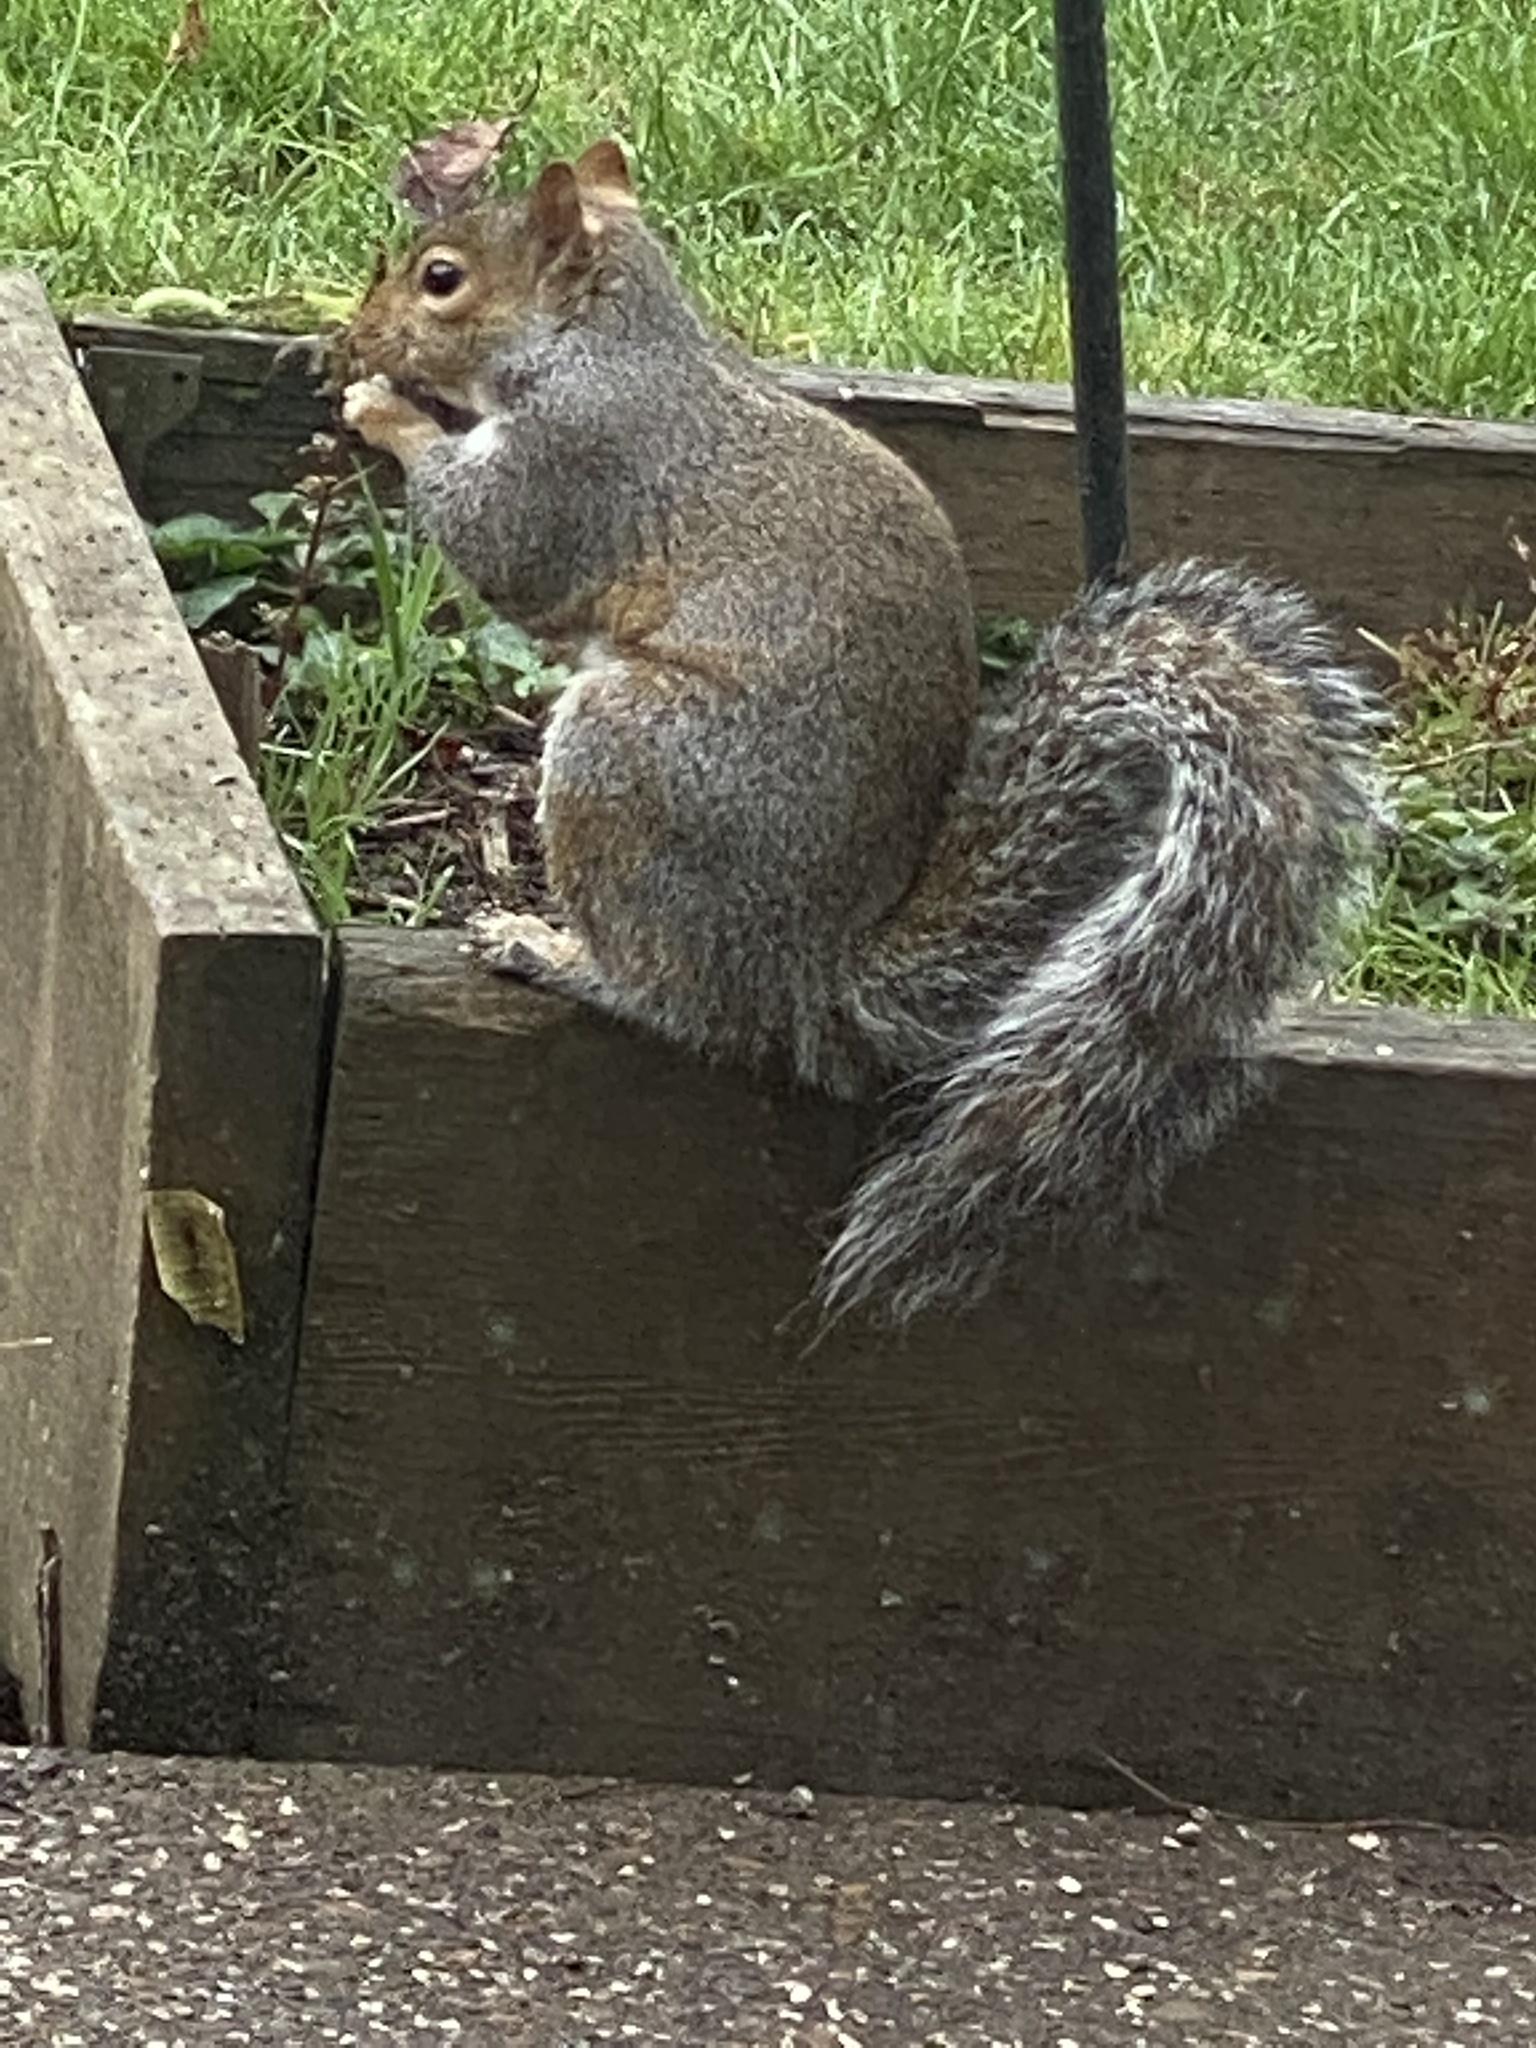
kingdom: Animalia
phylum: Chordata
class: Mammalia
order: Rodentia
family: Sciuridae
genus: Sciurus
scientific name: Sciurus carolinensis
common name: Eastern gray squirrel
